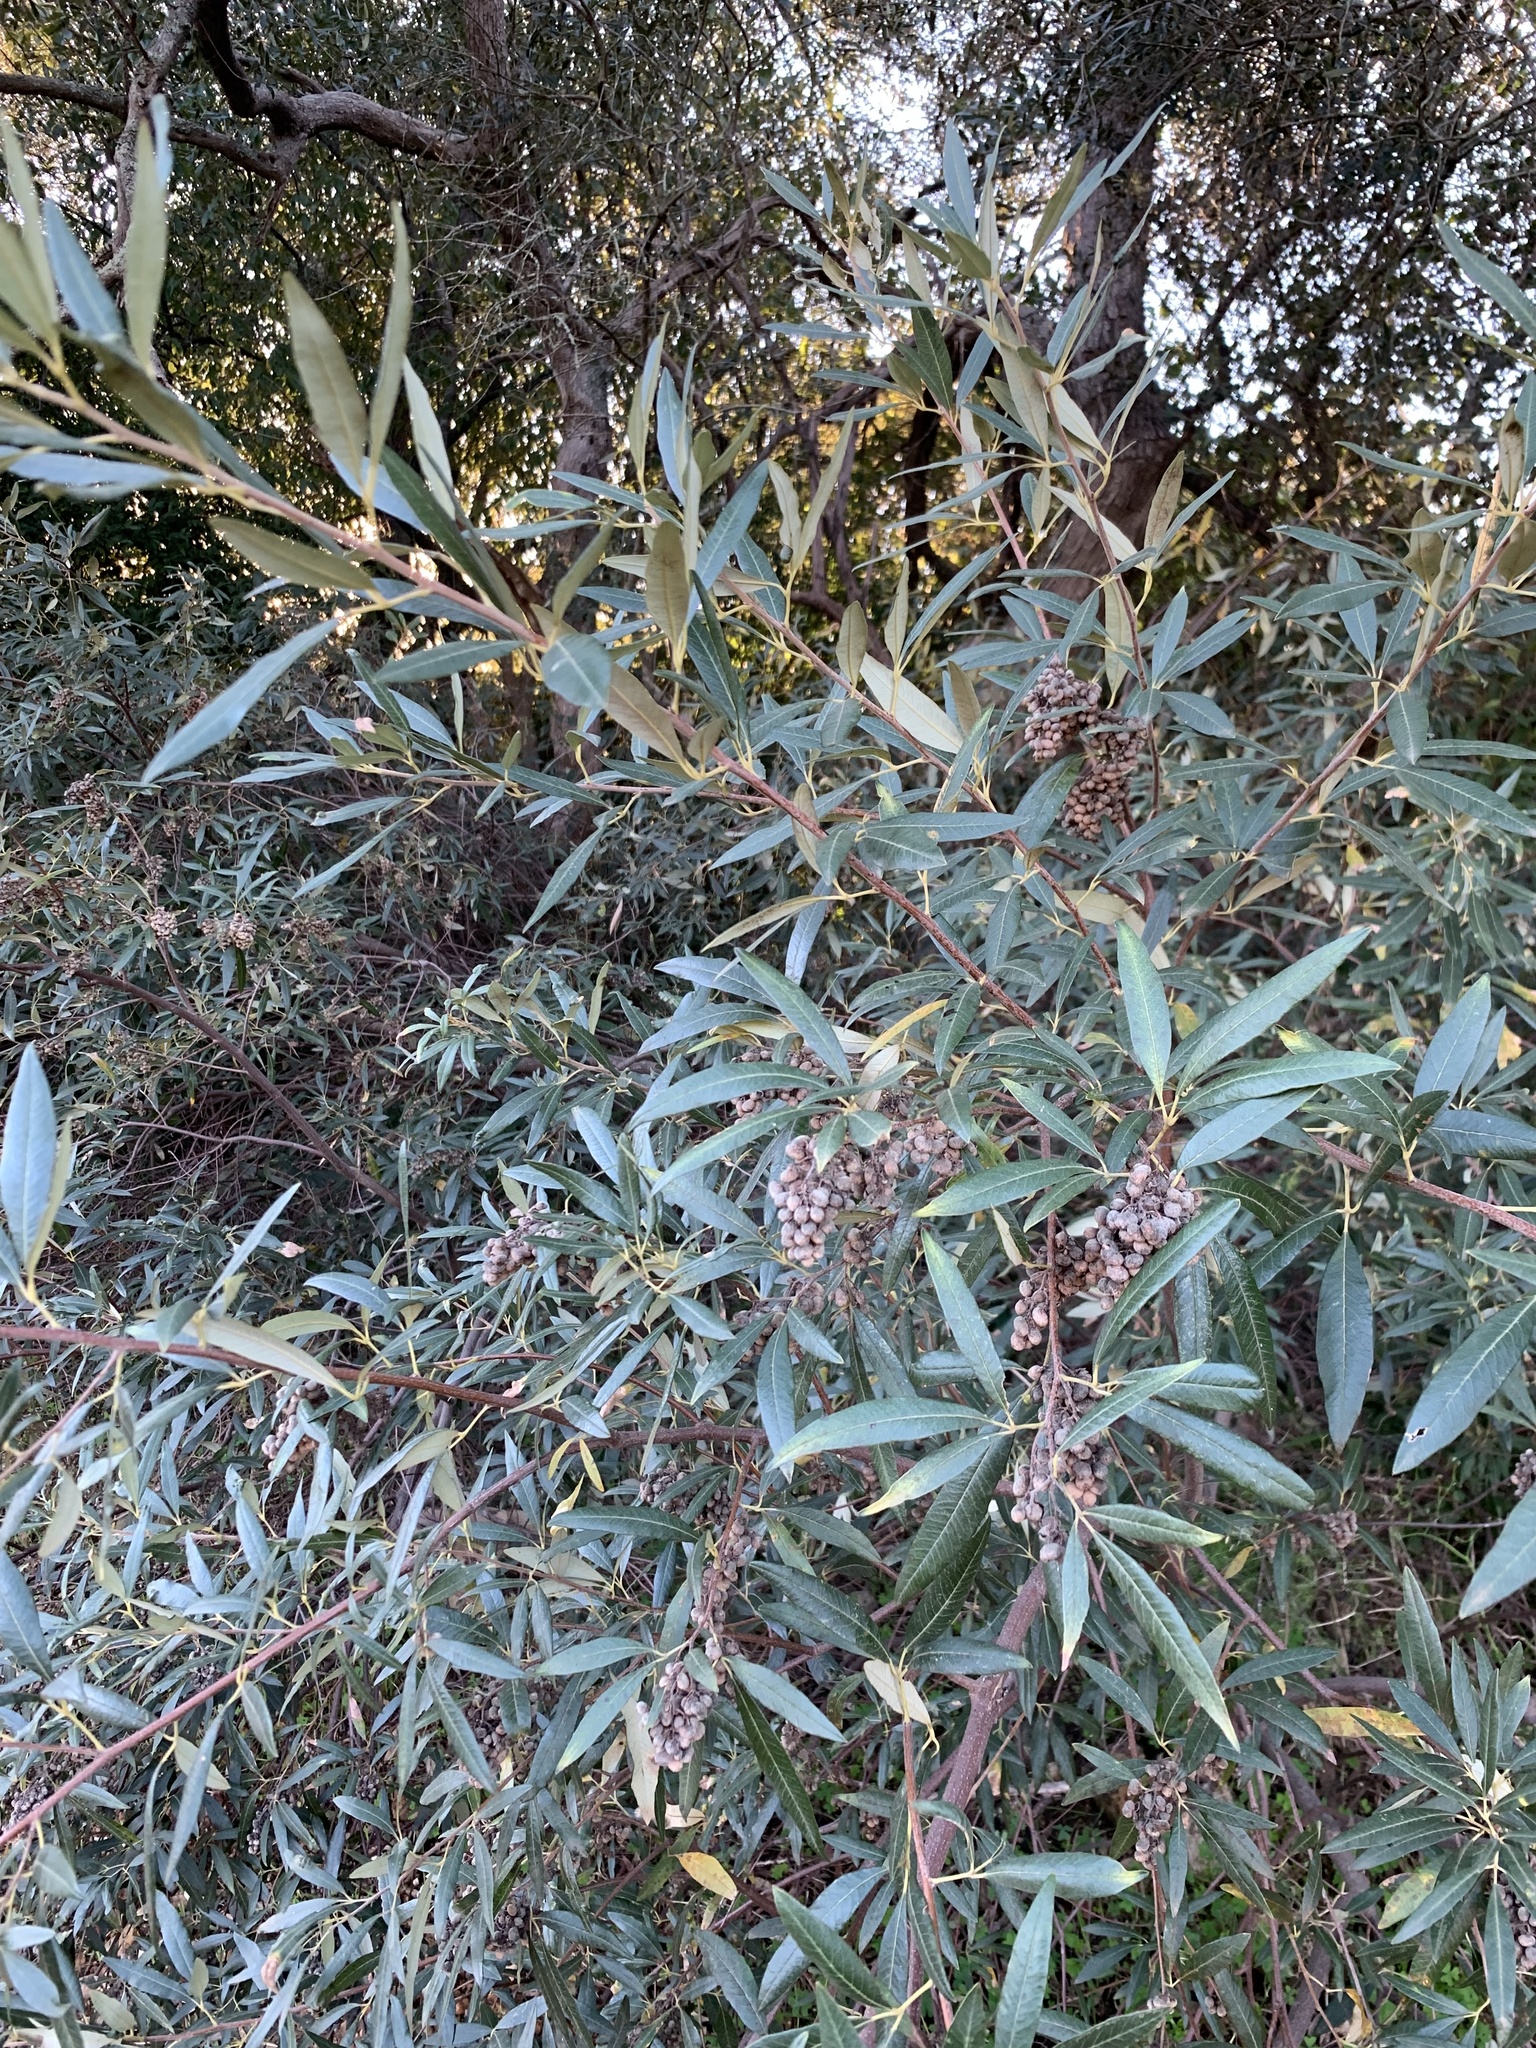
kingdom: Plantae
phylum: Tracheophyta
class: Magnoliopsida
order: Sapindales
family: Anacardiaceae
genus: Searsia
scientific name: Searsia angustifolia
